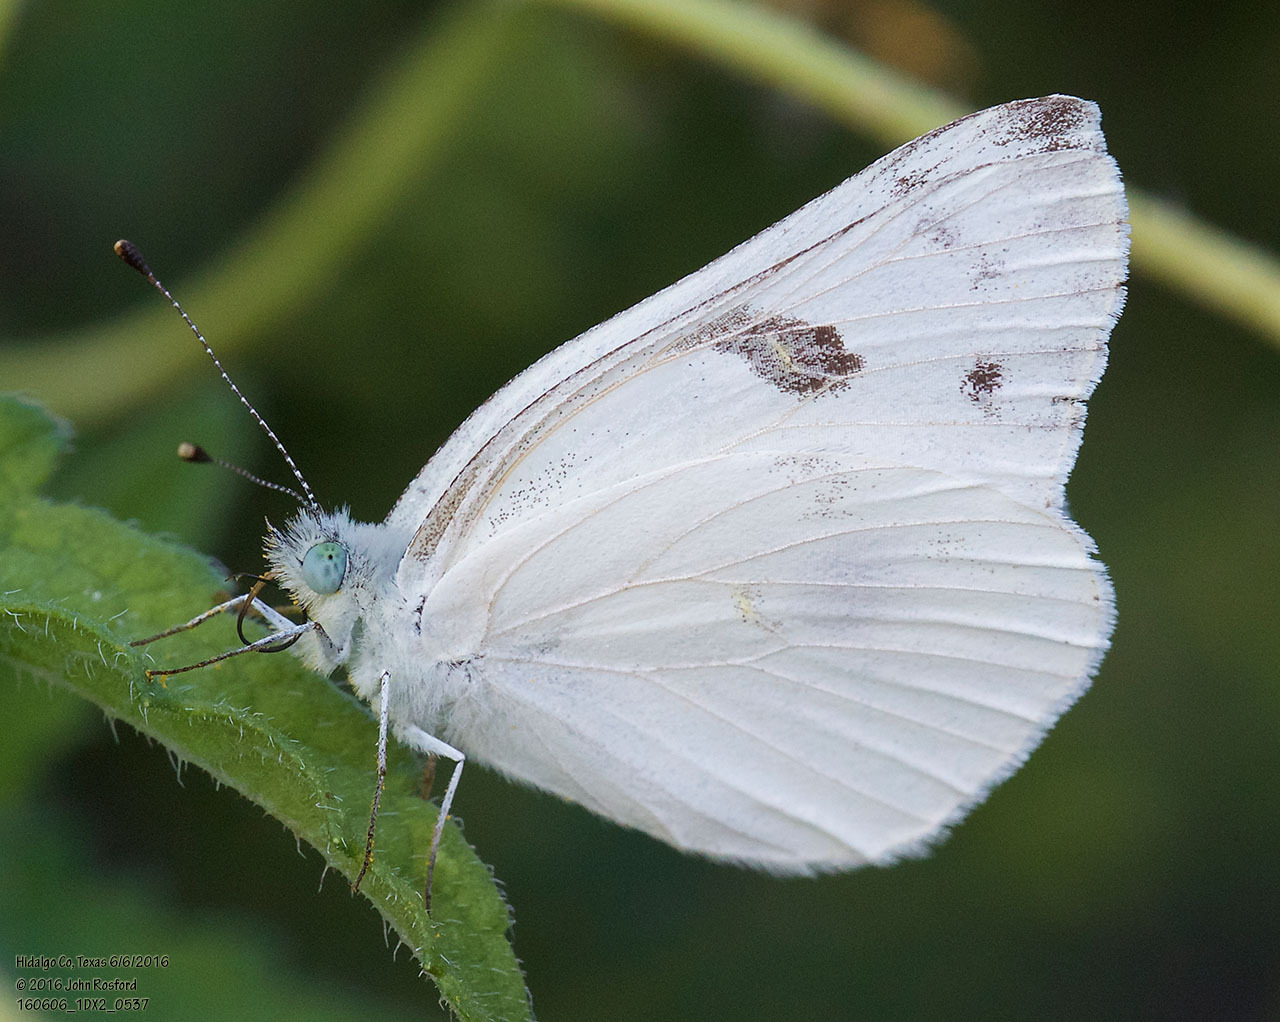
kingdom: Animalia
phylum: Arthropoda
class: Insecta
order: Lepidoptera
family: Pieridae
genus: Pontia
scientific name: Pontia protodice
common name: Checkered white
